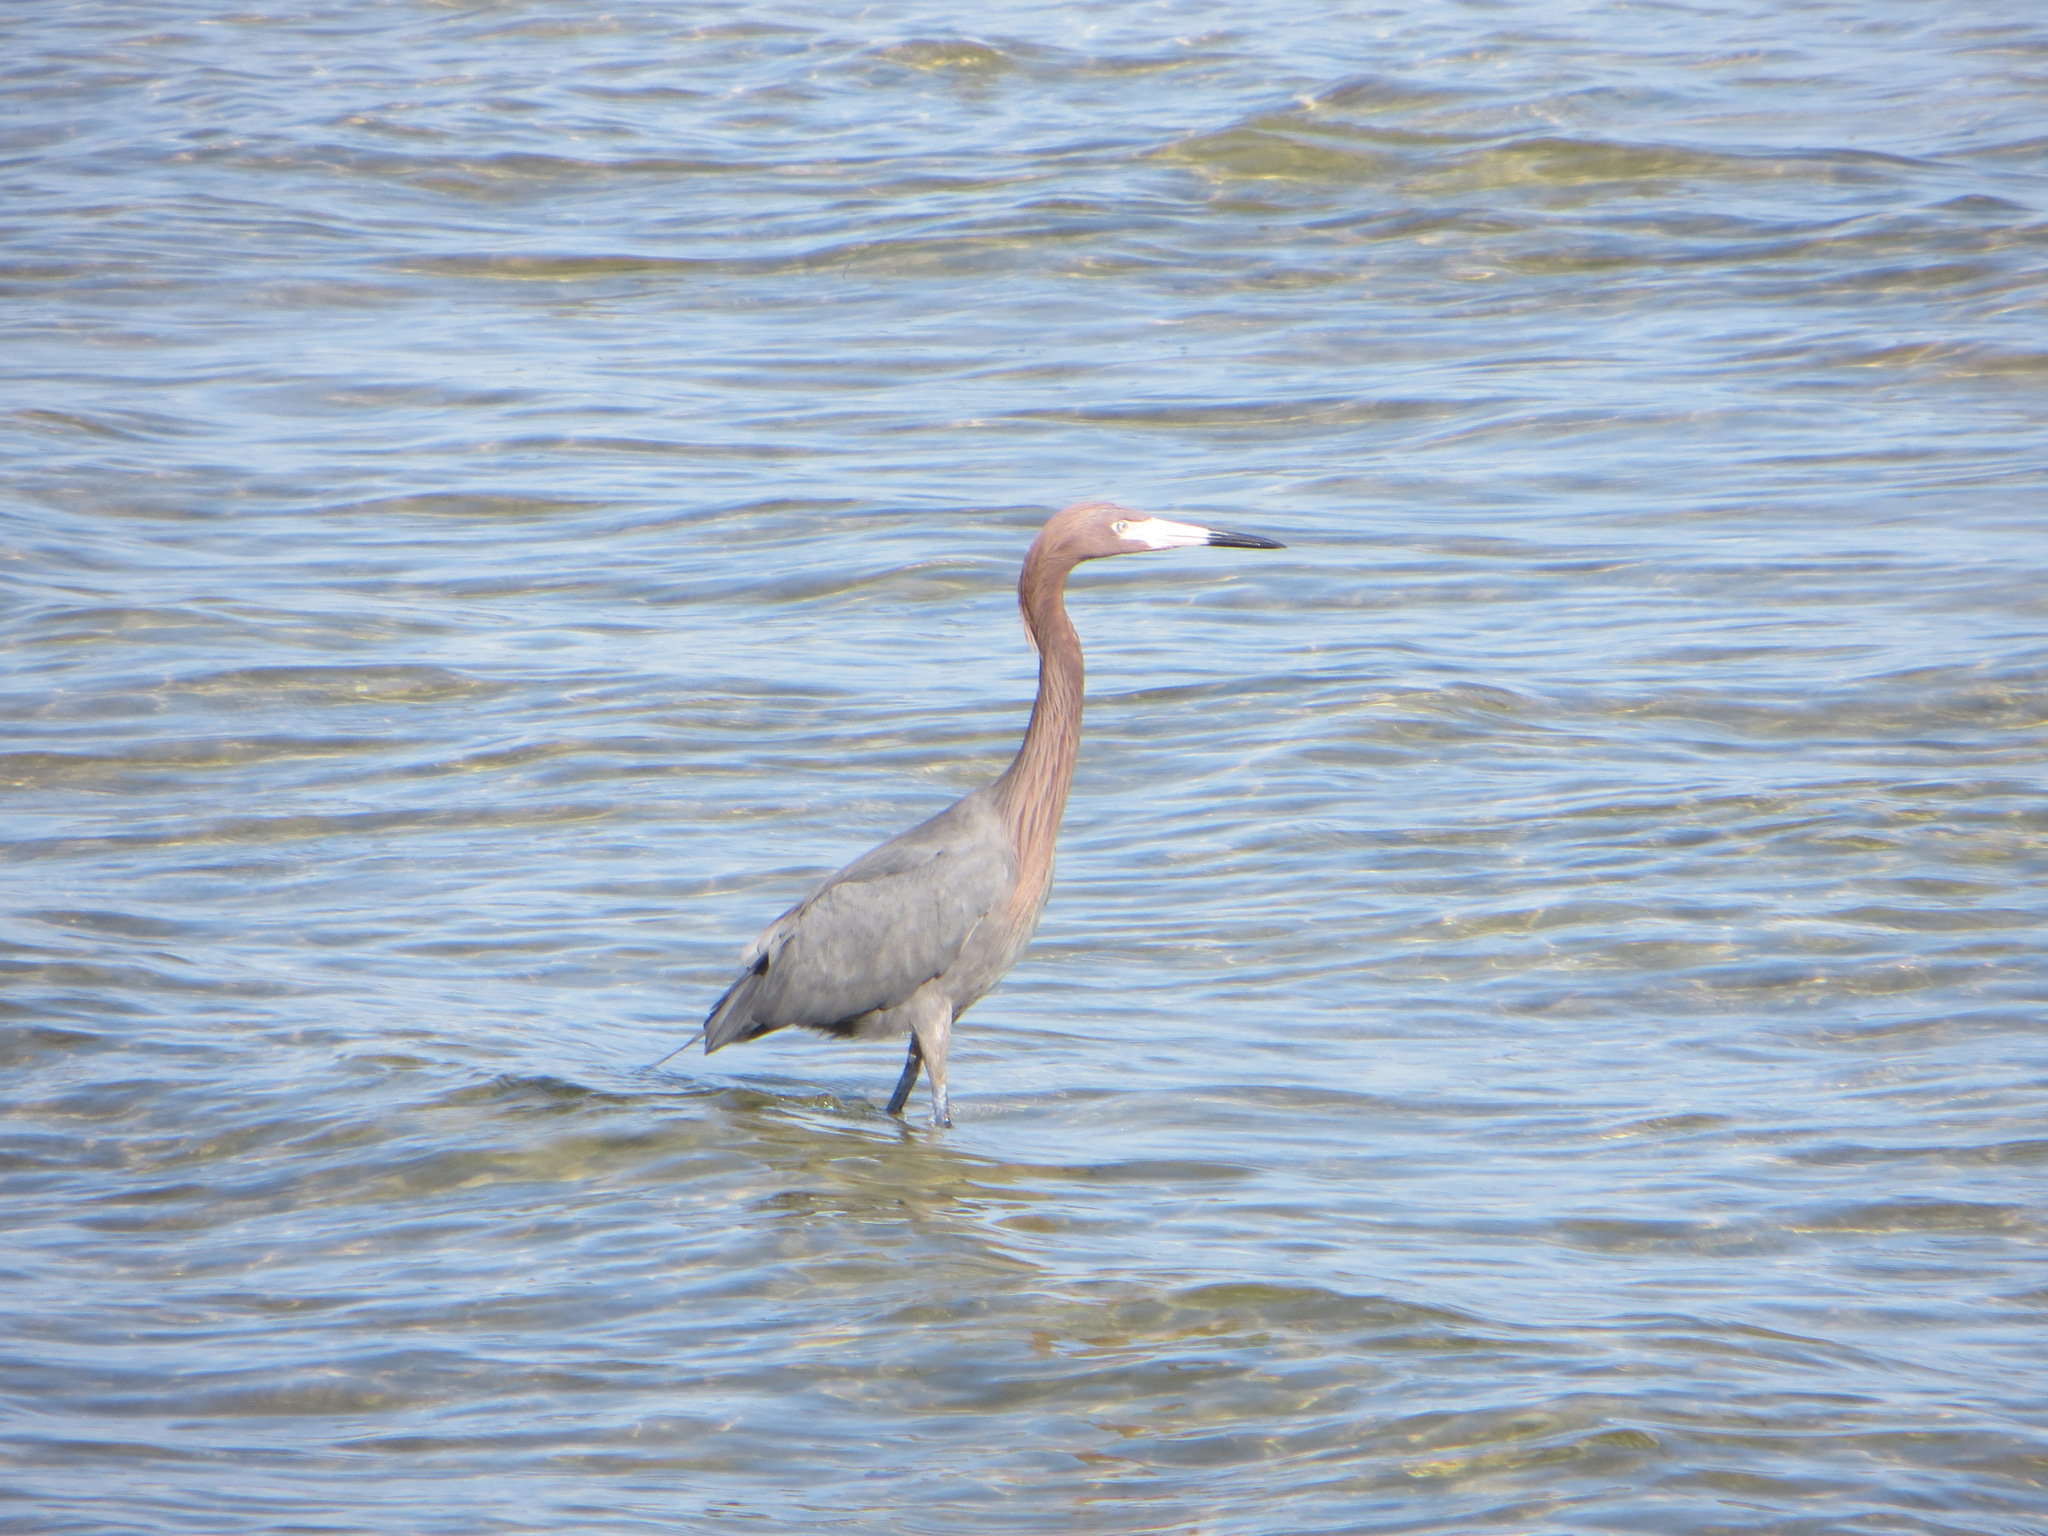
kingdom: Animalia
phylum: Chordata
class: Aves
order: Pelecaniformes
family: Ardeidae
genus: Egretta
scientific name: Egretta rufescens
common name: Reddish egret
